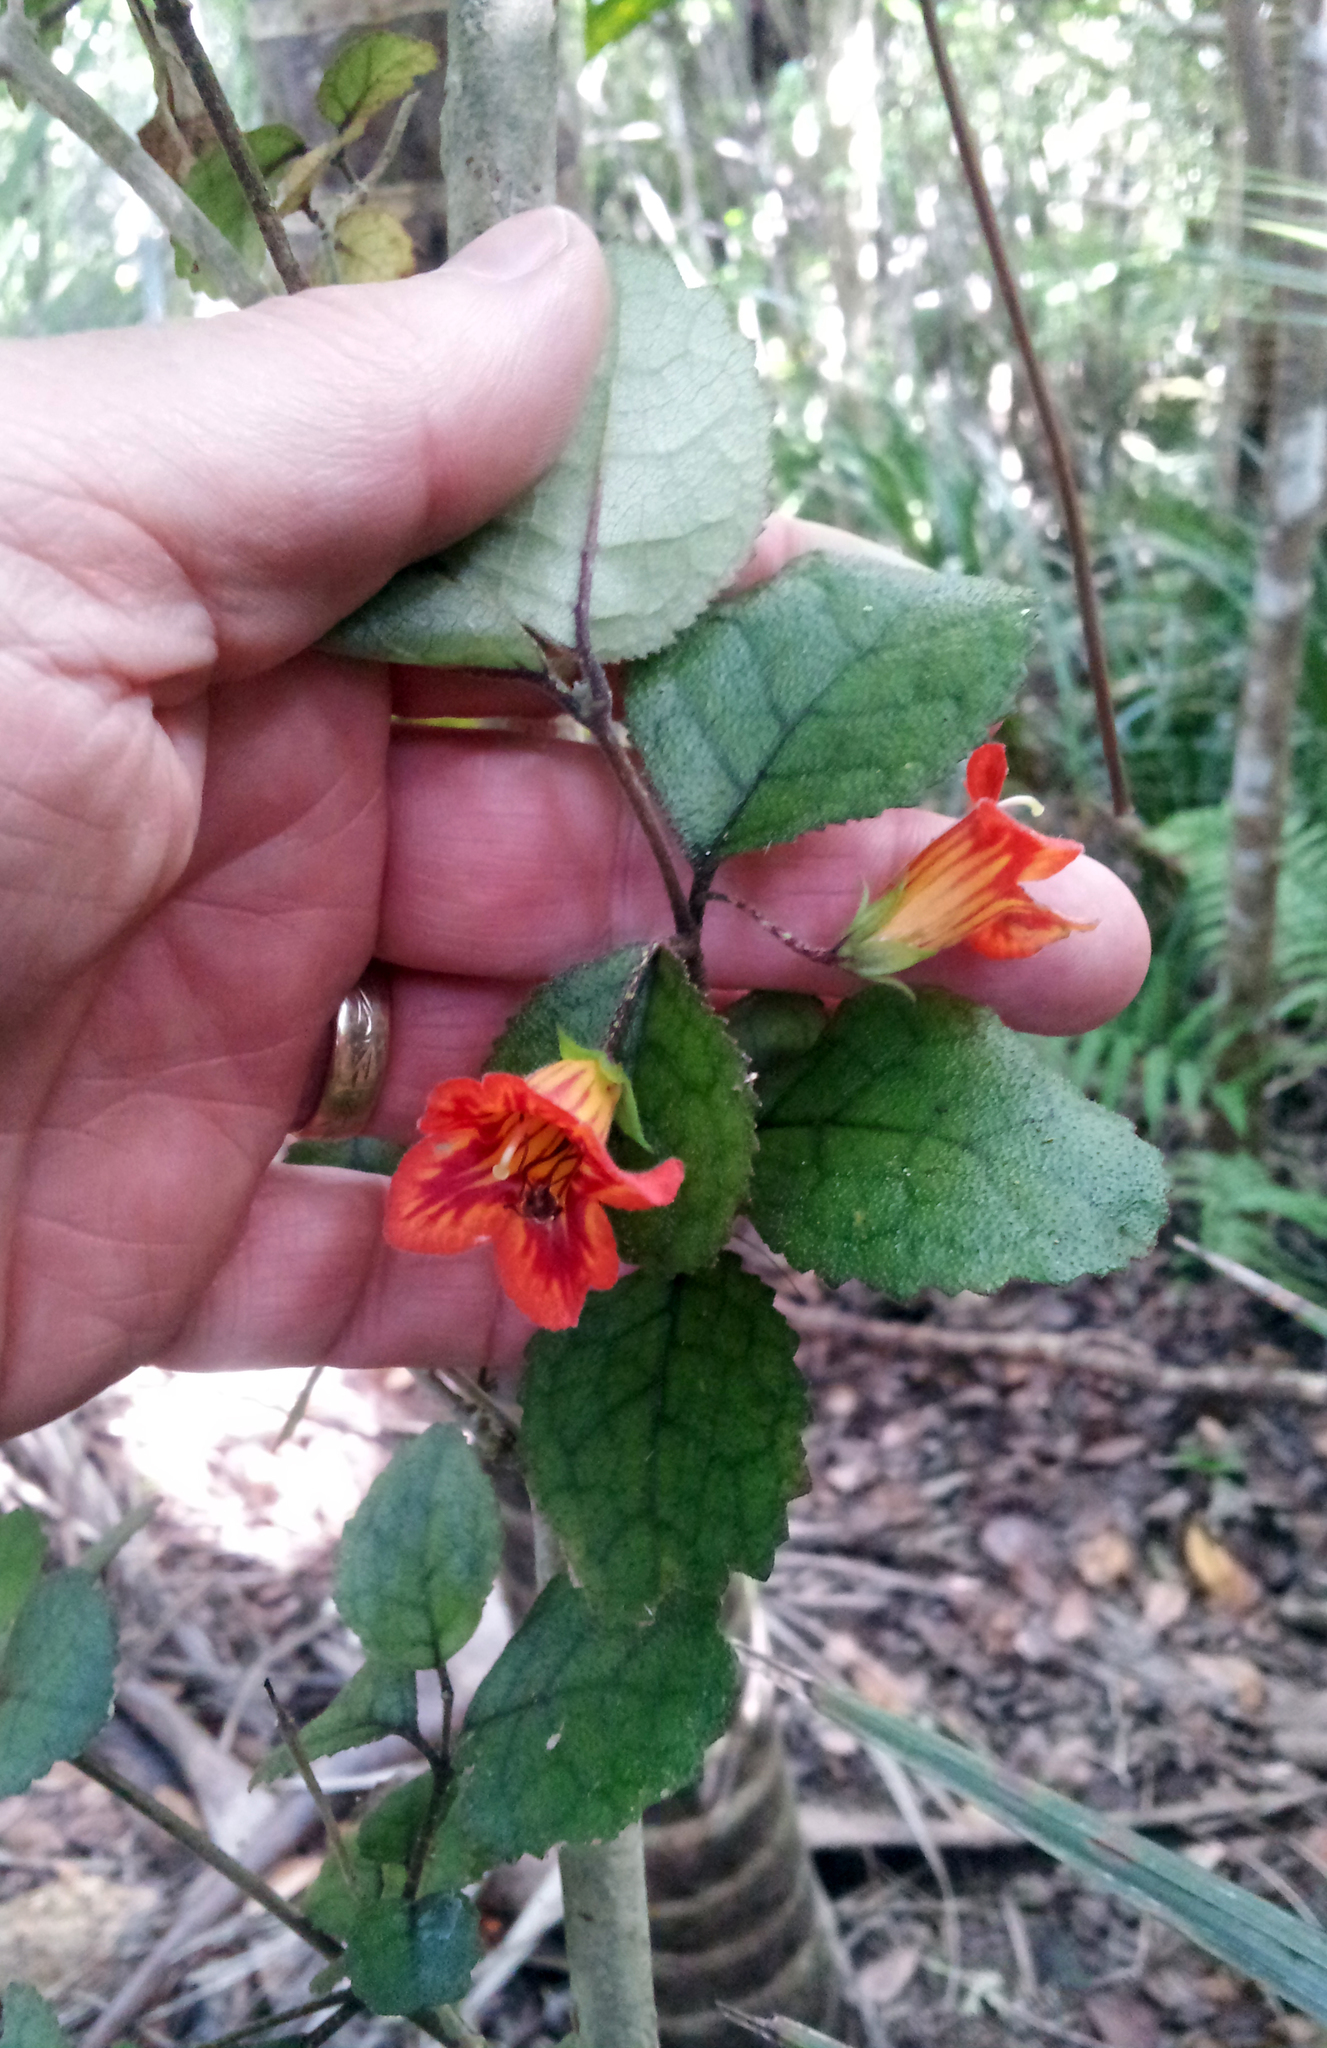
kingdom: Plantae
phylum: Tracheophyta
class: Magnoliopsida
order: Lamiales
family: Gesneriaceae
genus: Rhabdothamnus
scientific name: Rhabdothamnus solandri
